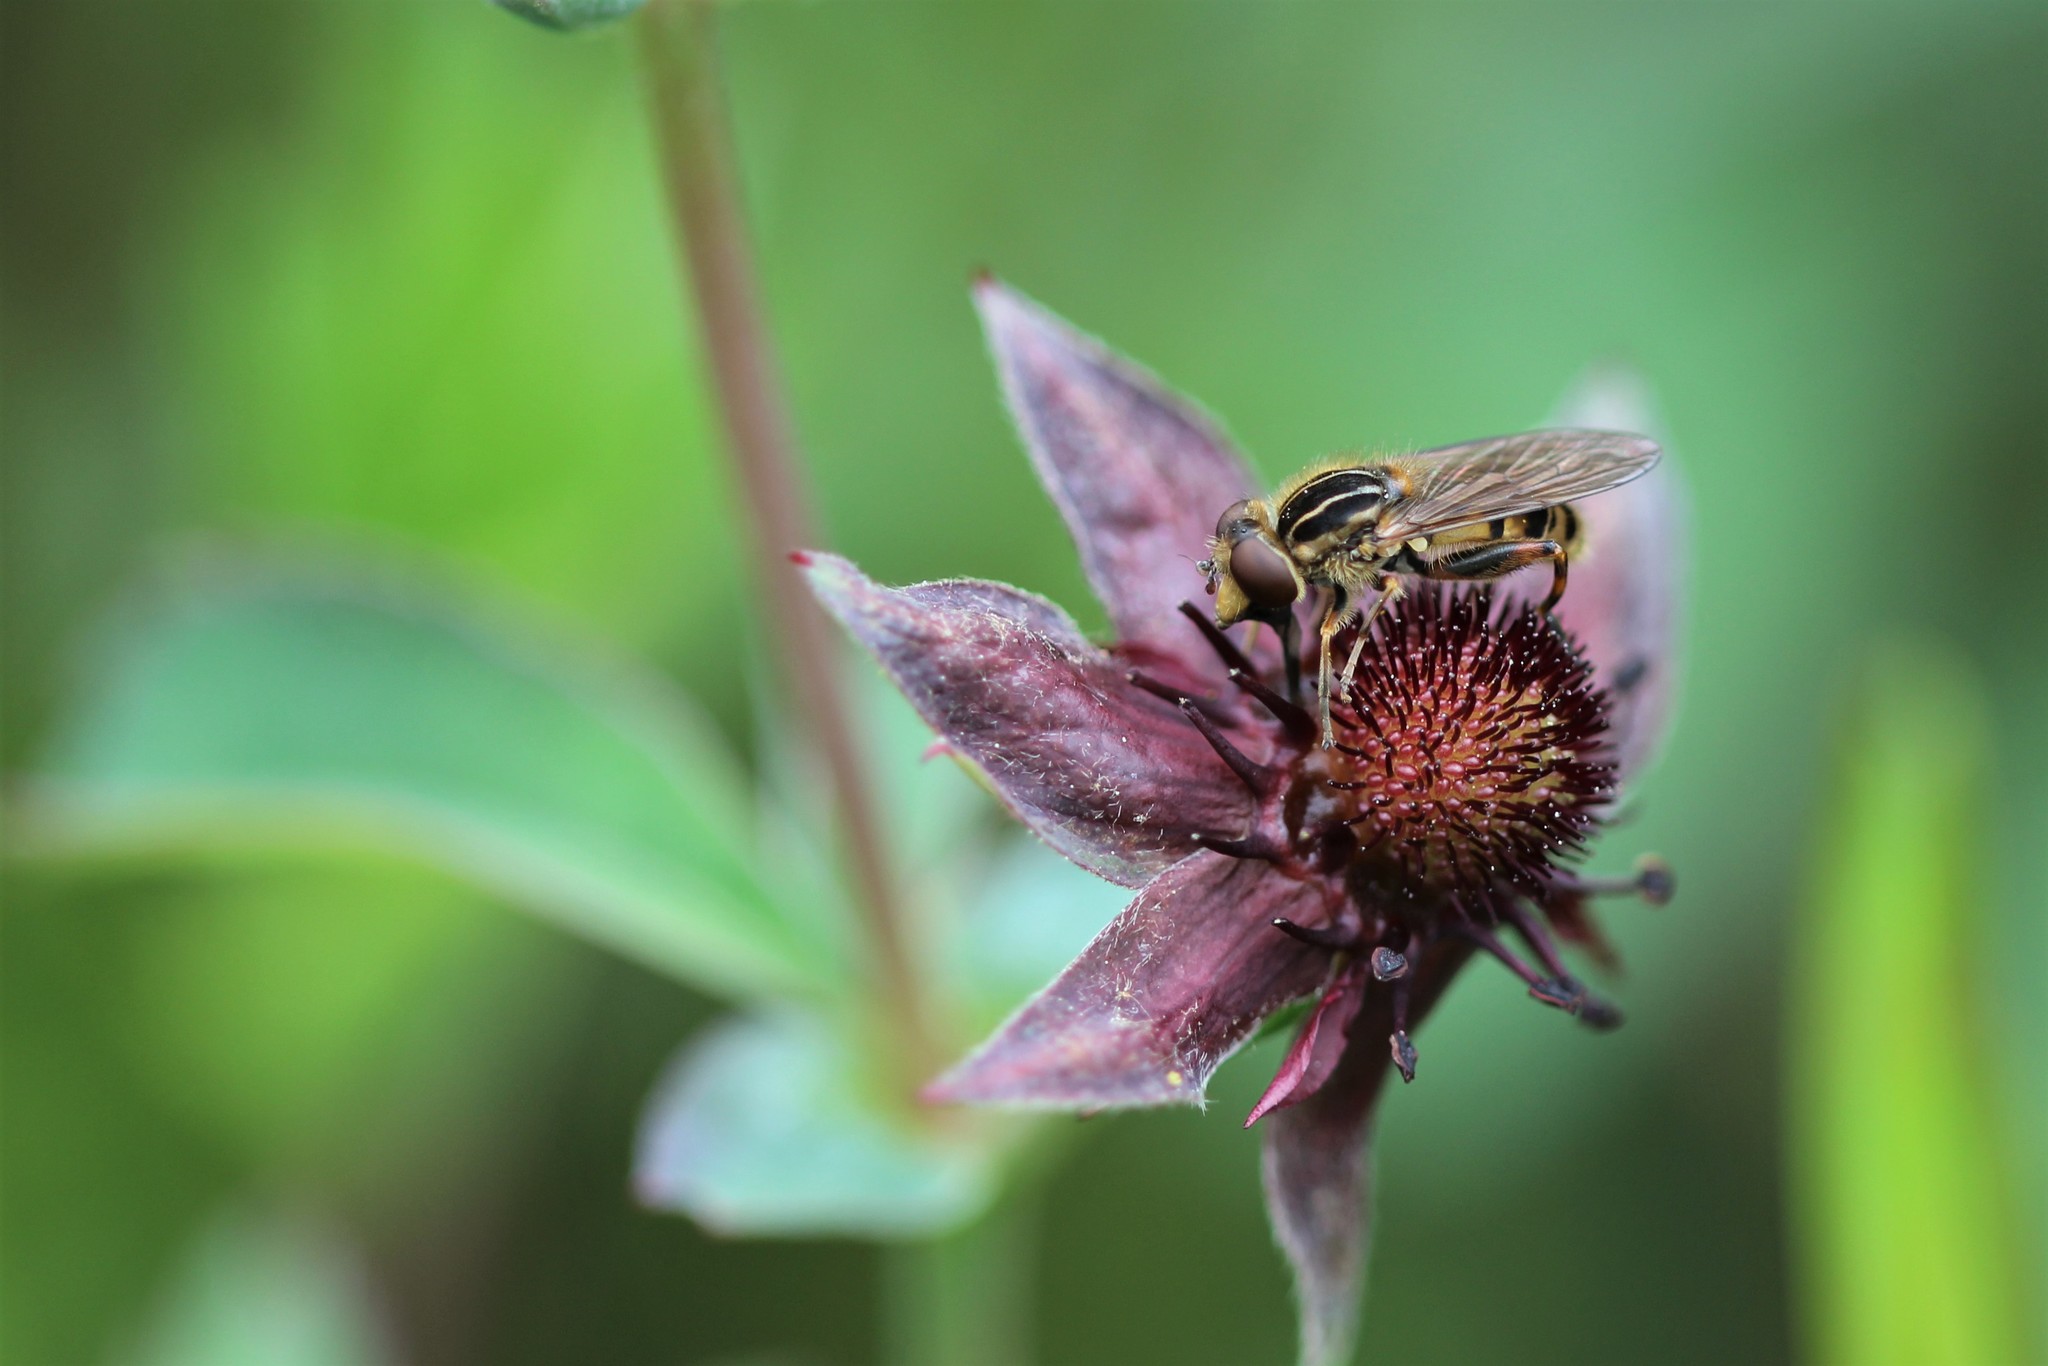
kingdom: Animalia
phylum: Arthropoda
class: Insecta
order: Diptera
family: Syrphidae
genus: Eurimyia
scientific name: Eurimyia stipatus
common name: Long-nosed swamp fly
